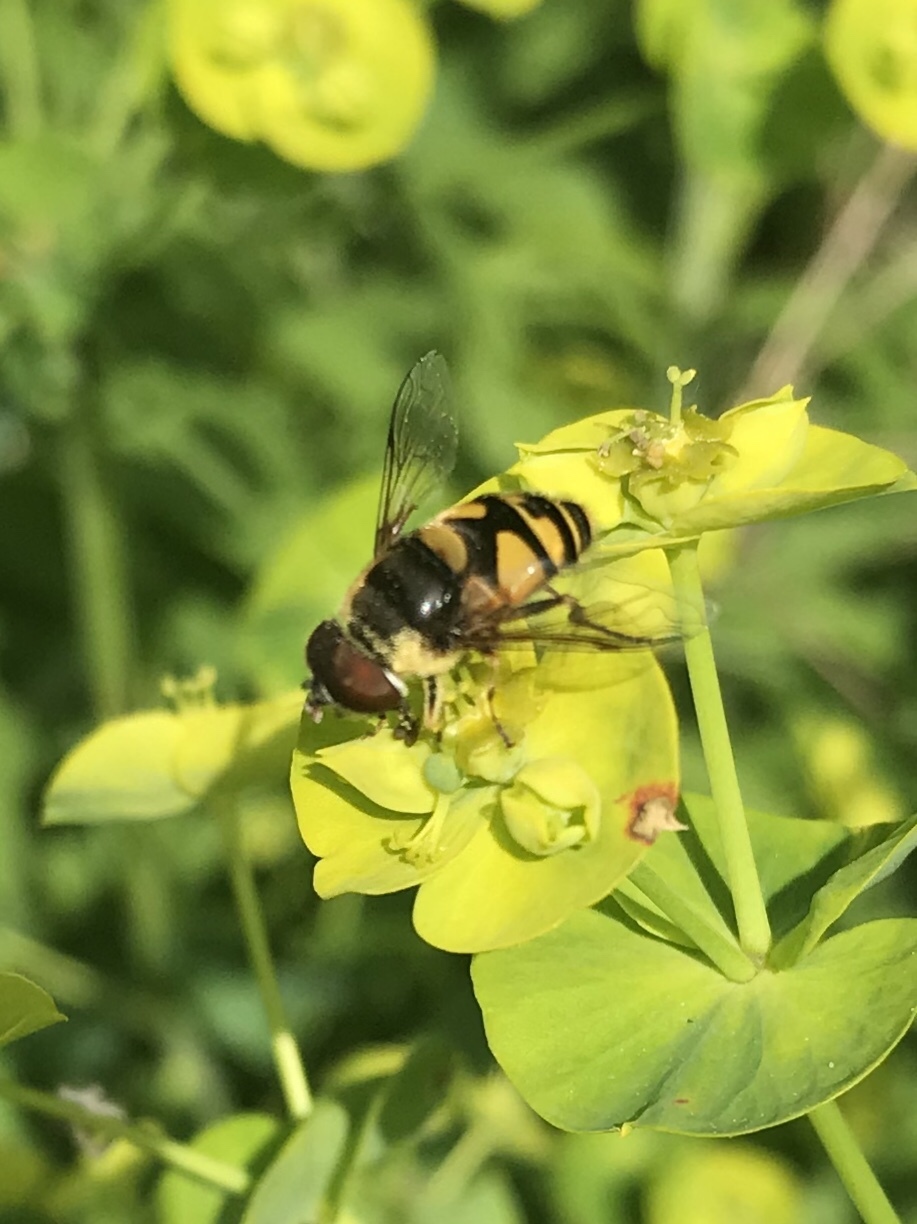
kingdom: Animalia
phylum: Arthropoda
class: Insecta
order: Diptera
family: Syrphidae
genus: Eristalis
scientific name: Eristalis transversa
